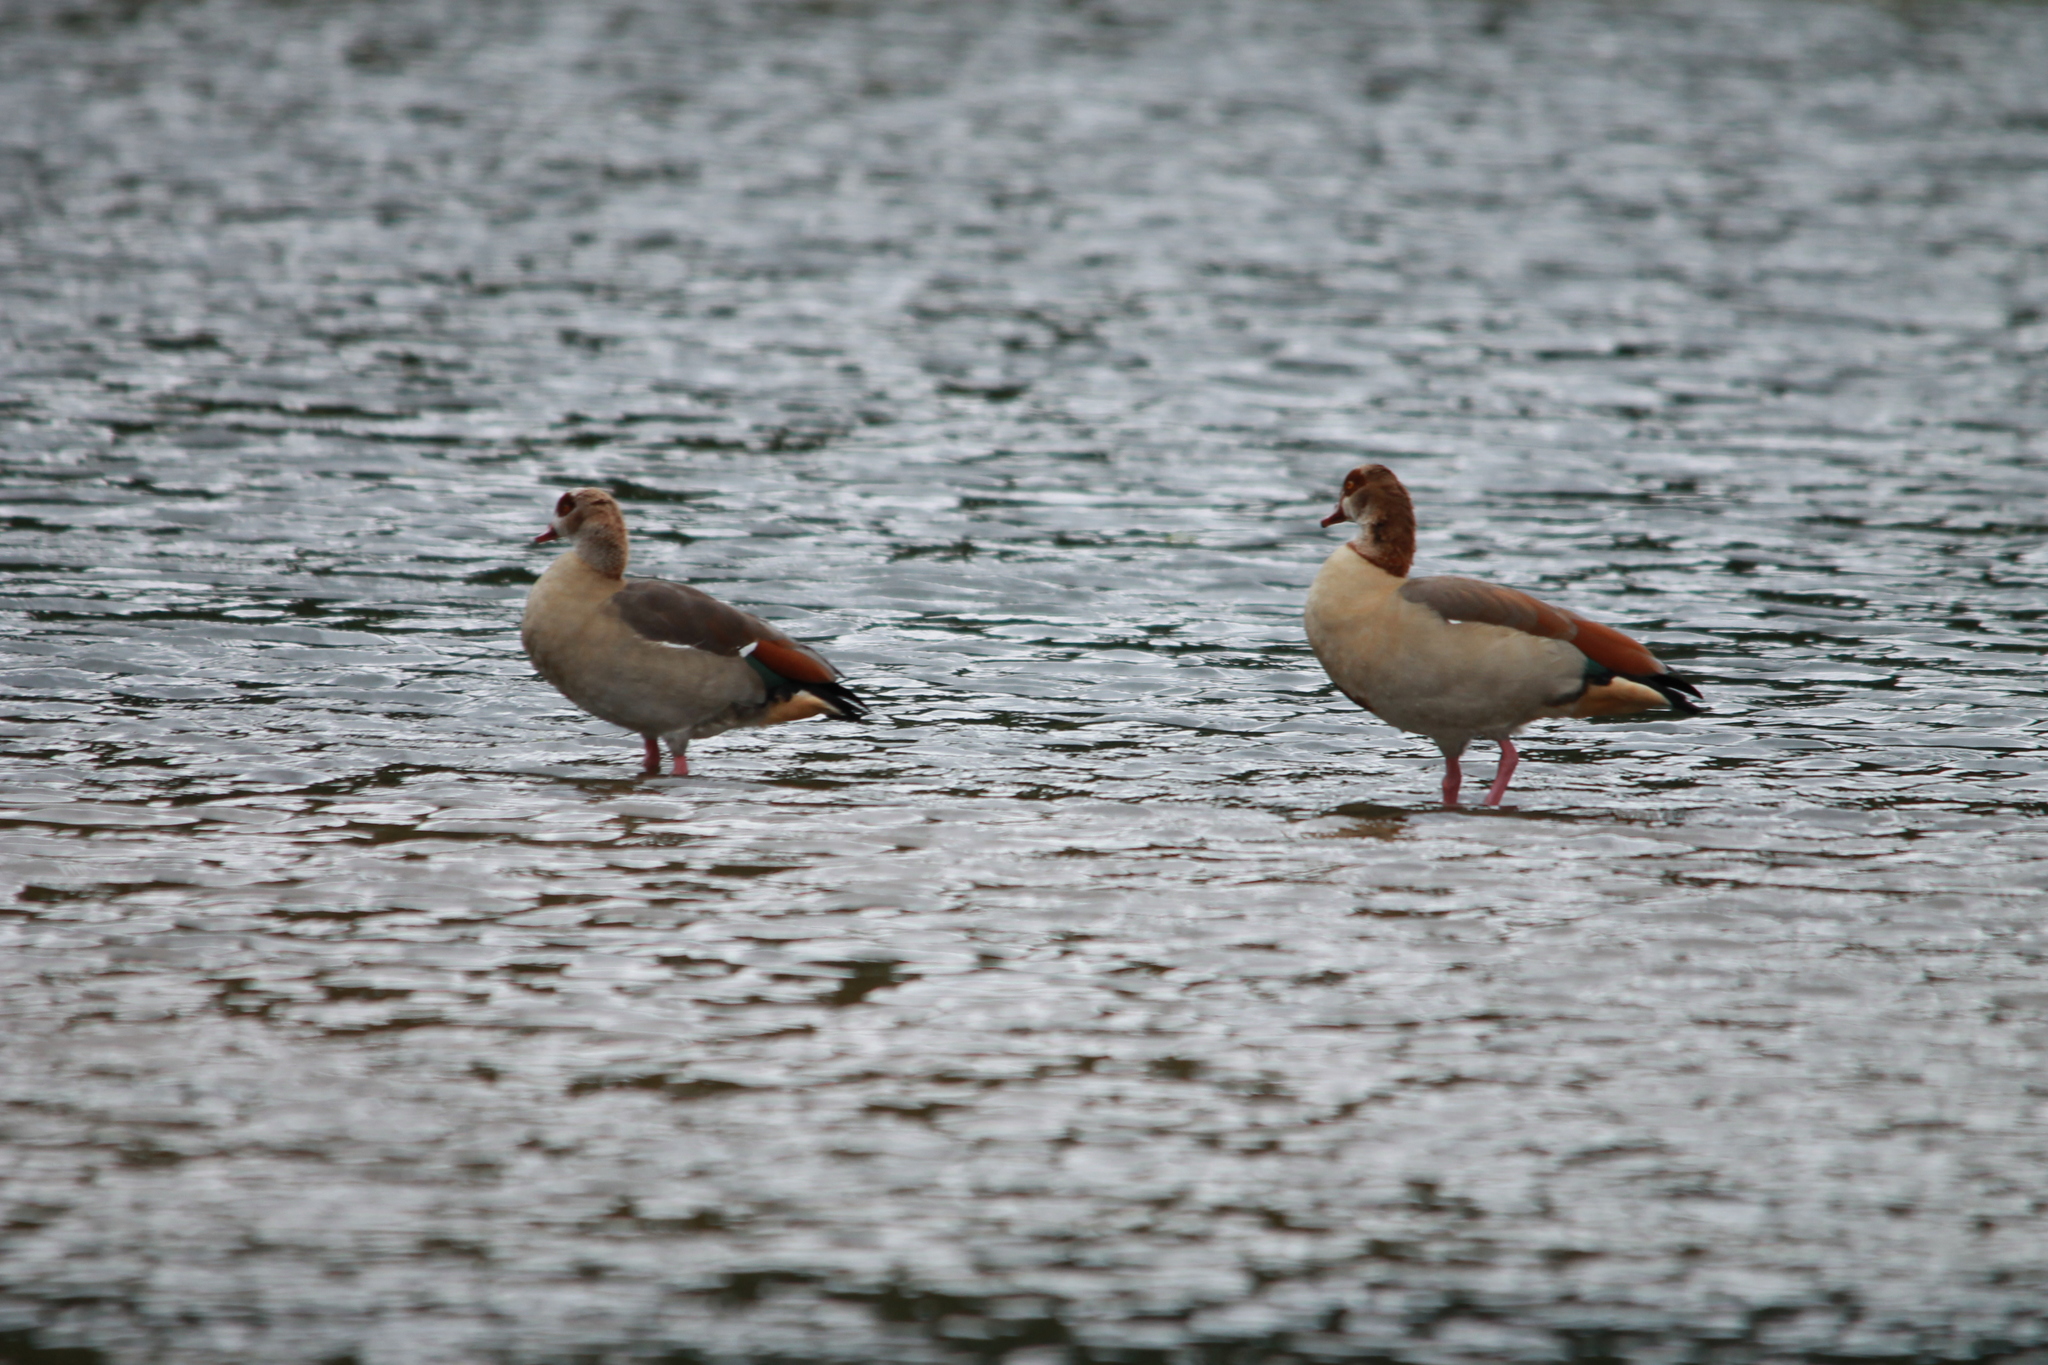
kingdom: Animalia
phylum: Chordata
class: Aves
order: Anseriformes
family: Anatidae
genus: Alopochen
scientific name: Alopochen aegyptiaca
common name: Egyptian goose
